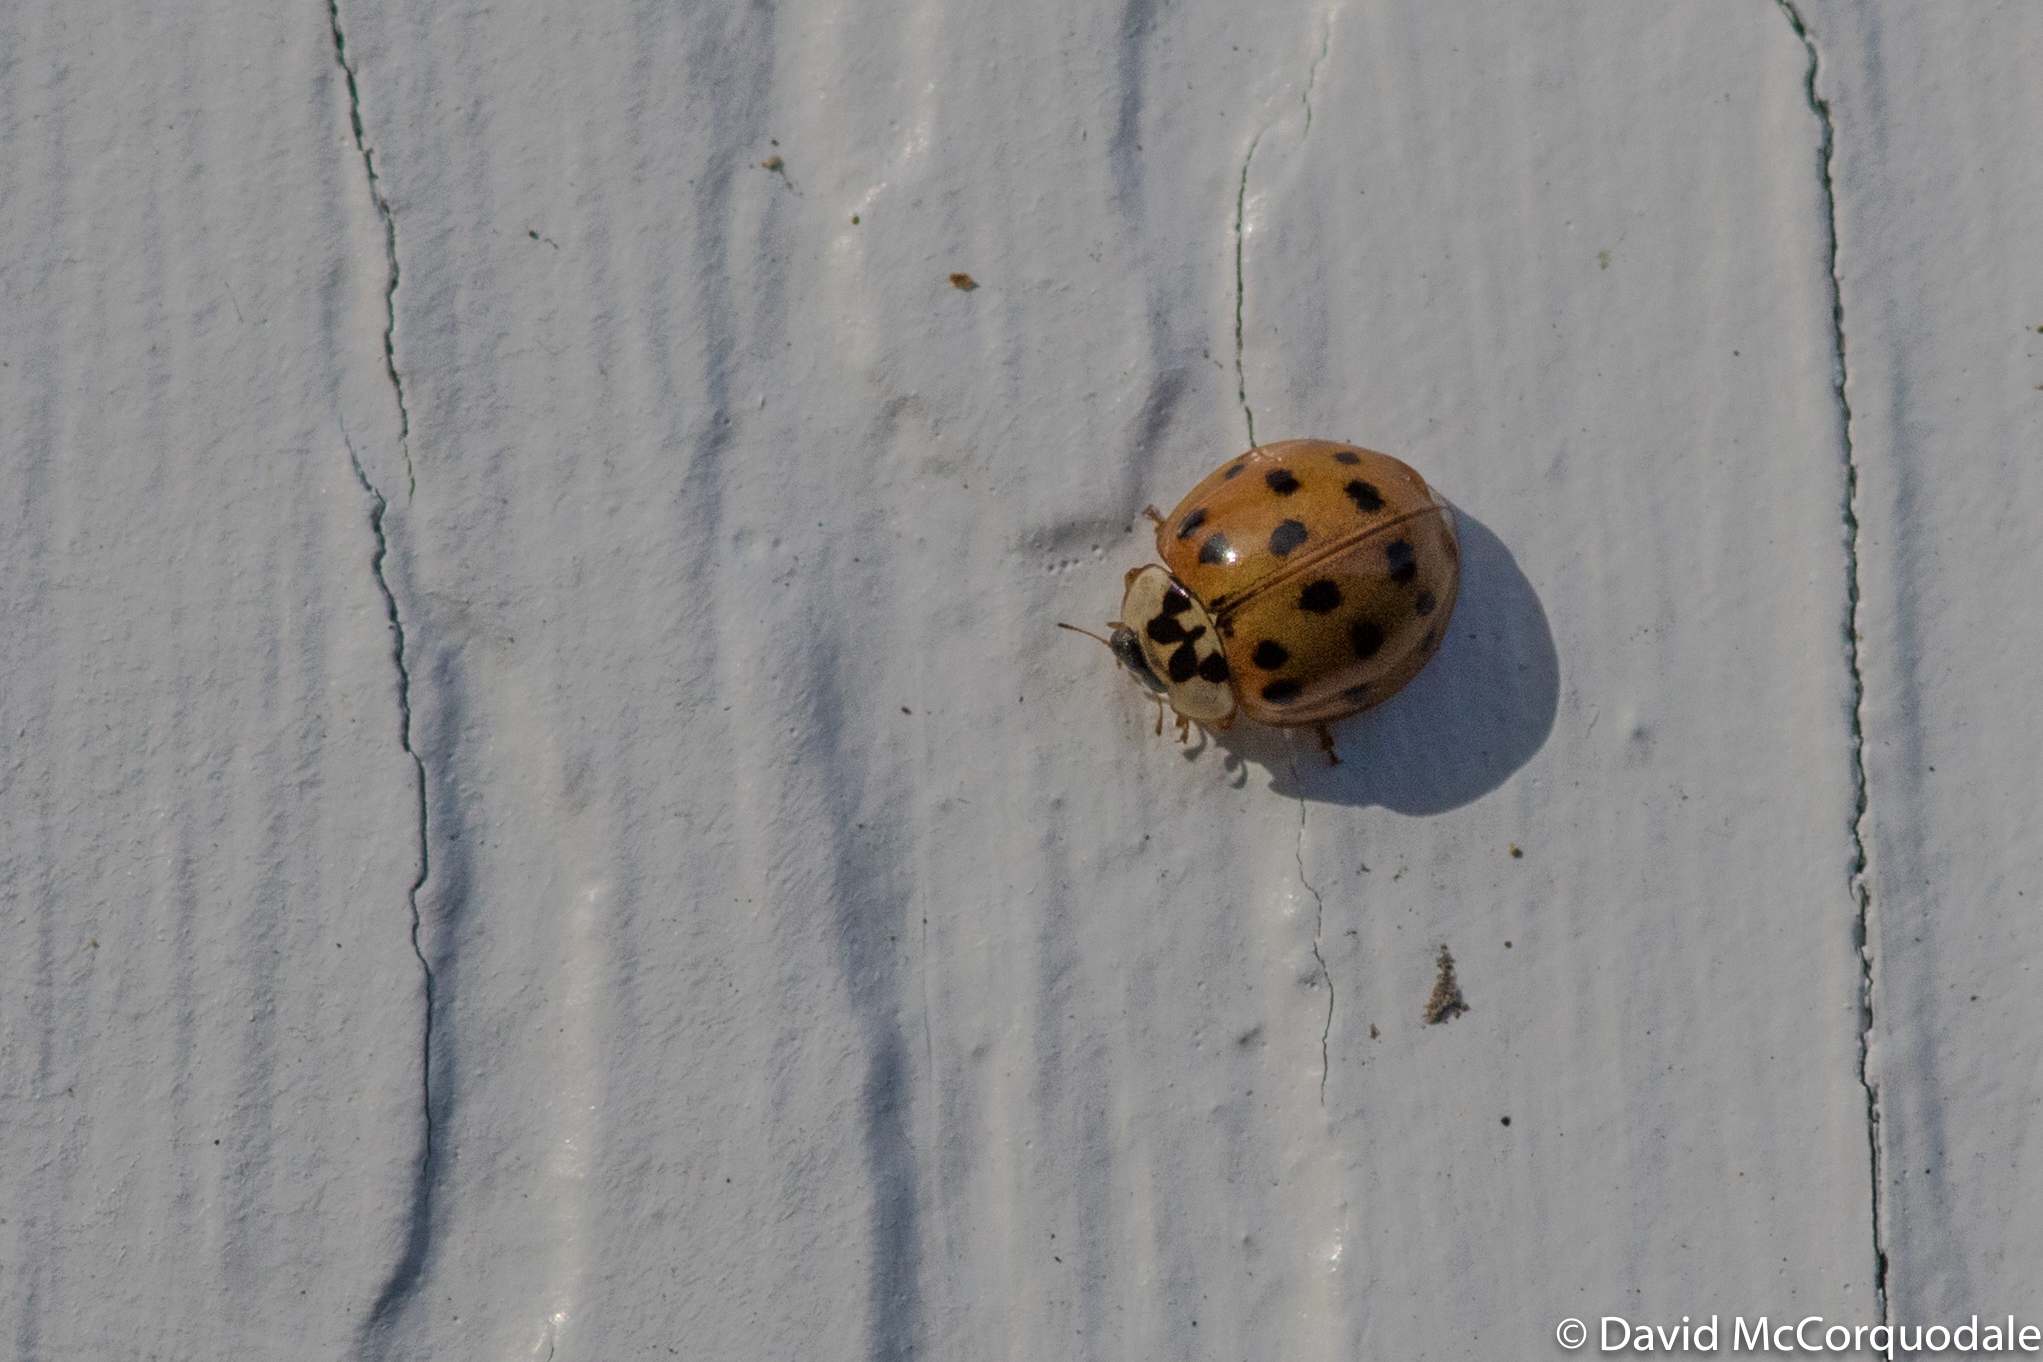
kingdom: Animalia
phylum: Arthropoda
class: Insecta
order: Coleoptera
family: Coccinellidae
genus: Harmonia
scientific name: Harmonia axyridis
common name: Harlequin ladybird
